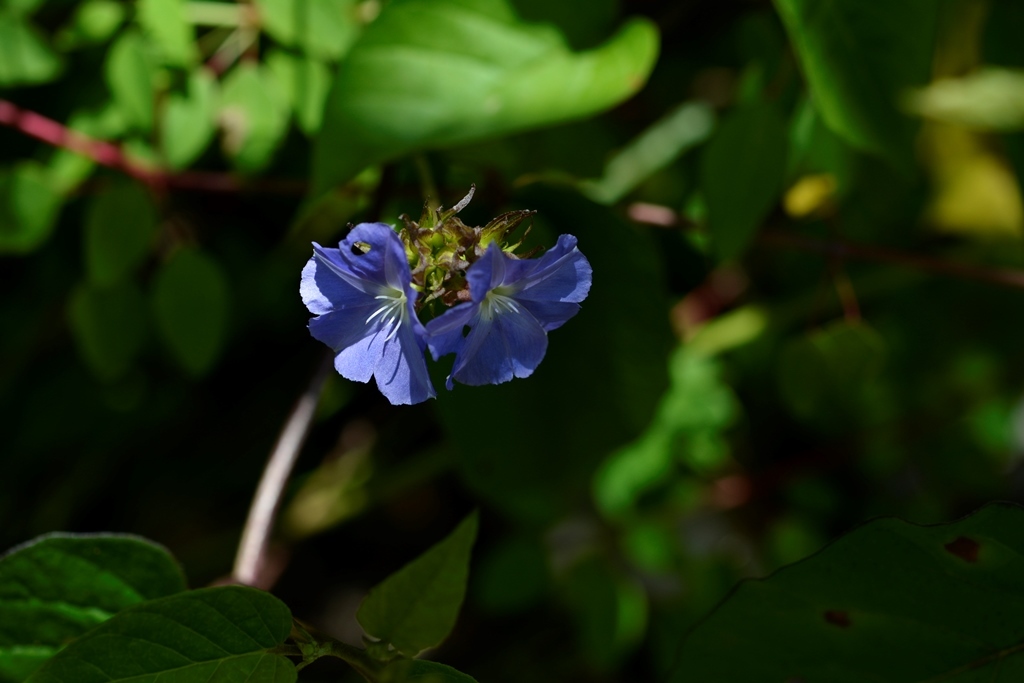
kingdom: Plantae
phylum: Tracheophyta
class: Magnoliopsida
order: Solanales
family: Convolvulaceae
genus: Jacquemontia
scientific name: Jacquemontia pentanthos
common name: Skyblue clustervine
